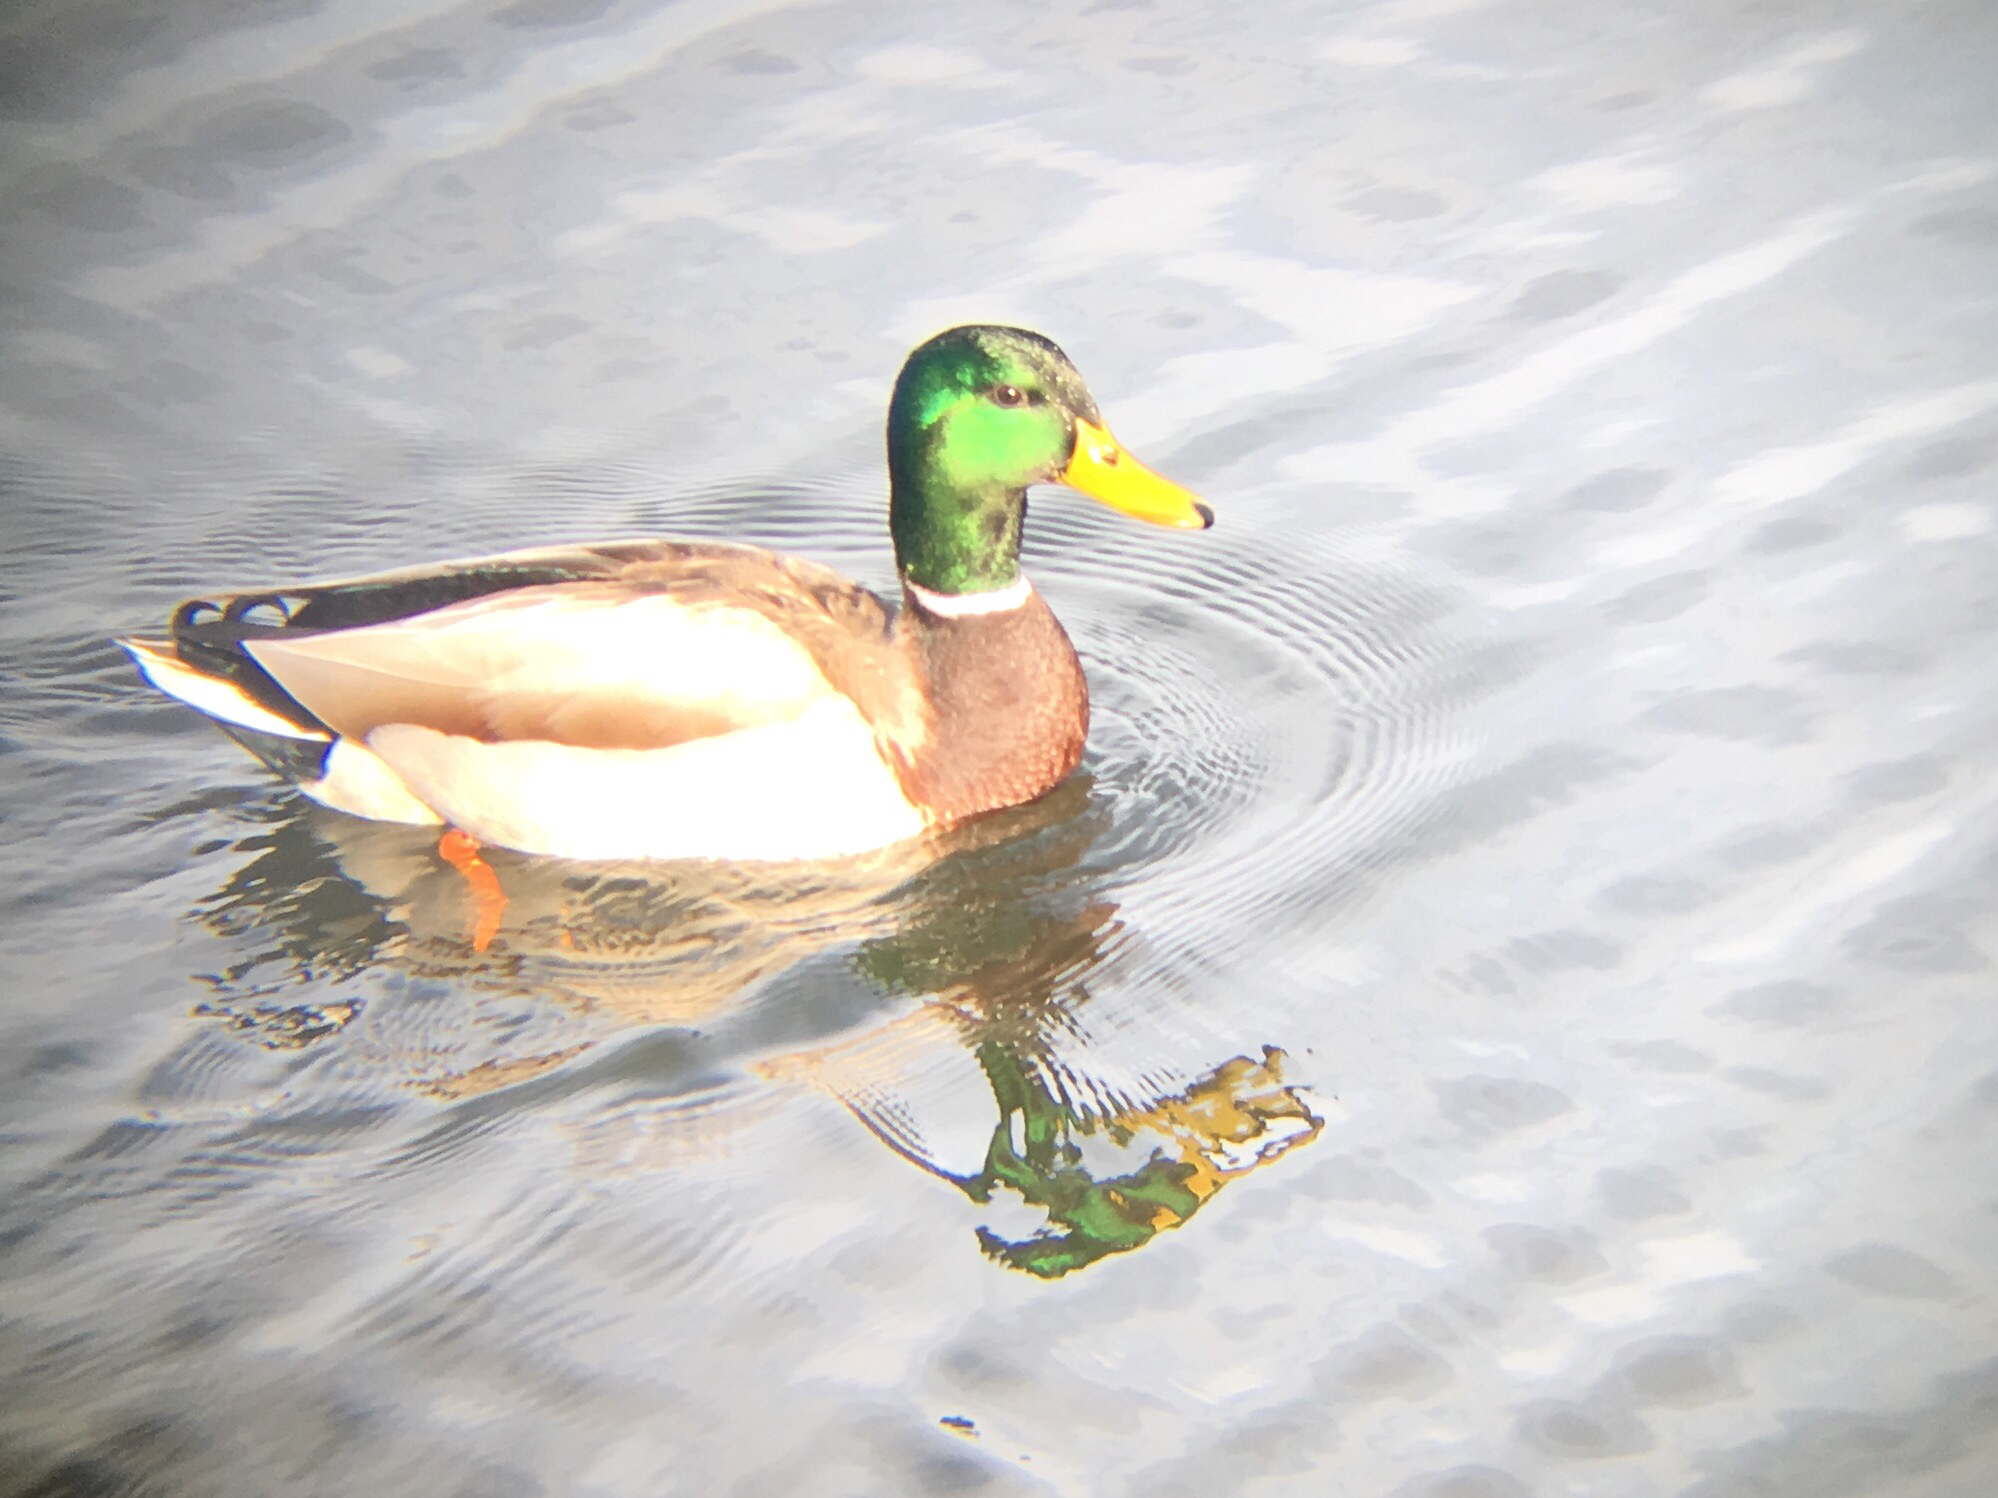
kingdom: Animalia
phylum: Chordata
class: Aves
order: Anseriformes
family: Anatidae
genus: Anas
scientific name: Anas platyrhynchos
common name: Mallard
